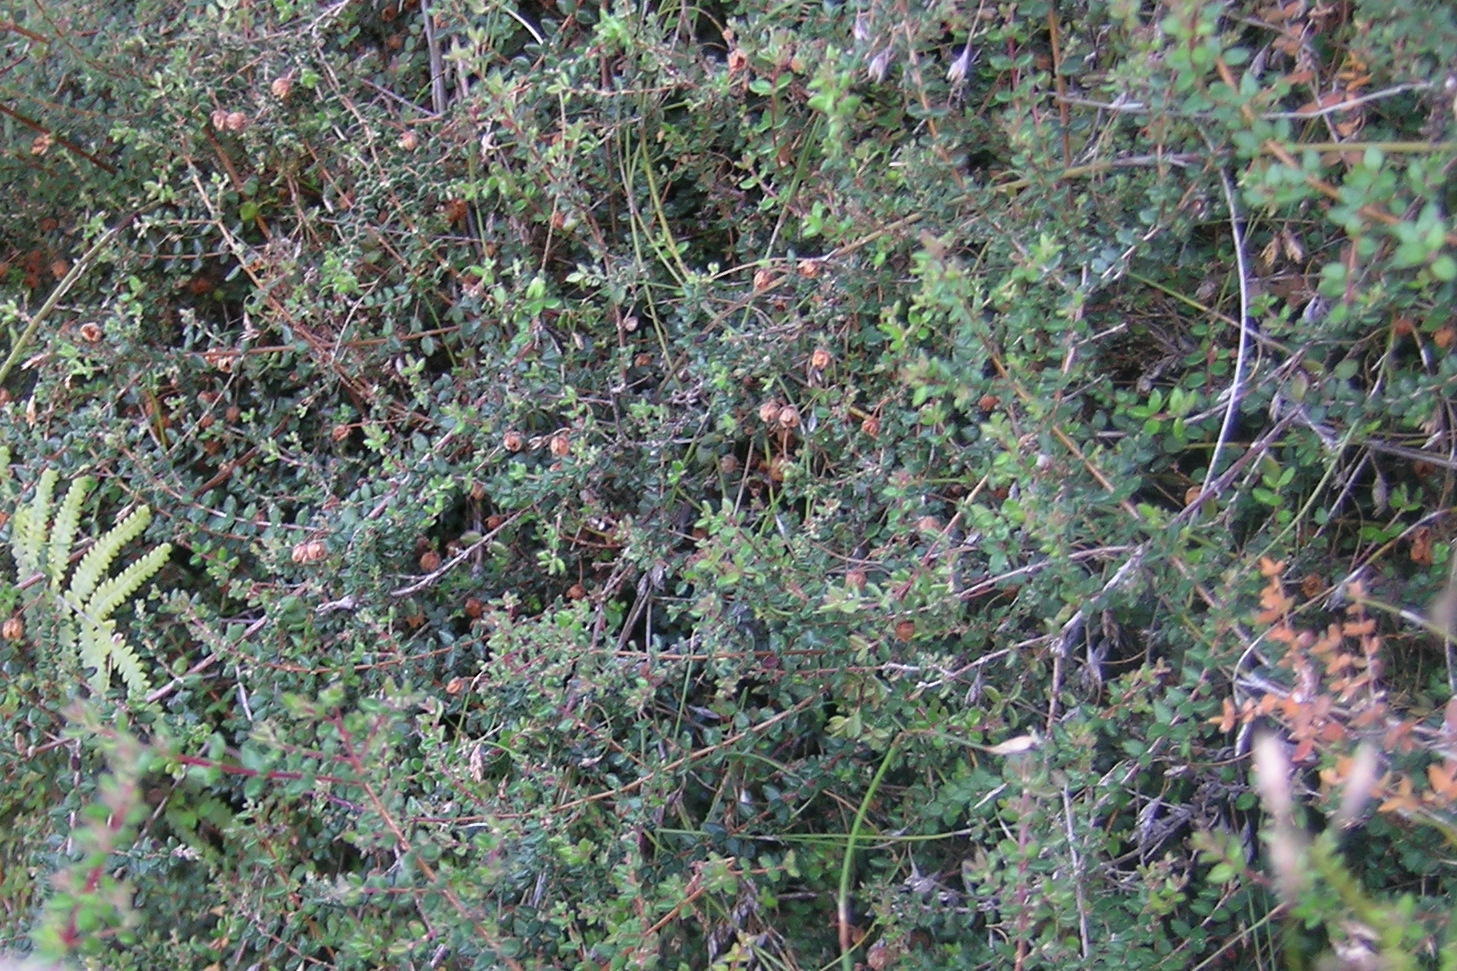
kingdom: Plantae
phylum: Tracheophyta
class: Magnoliopsida
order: Ericales
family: Ericaceae
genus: Erica
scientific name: Erica turneri
